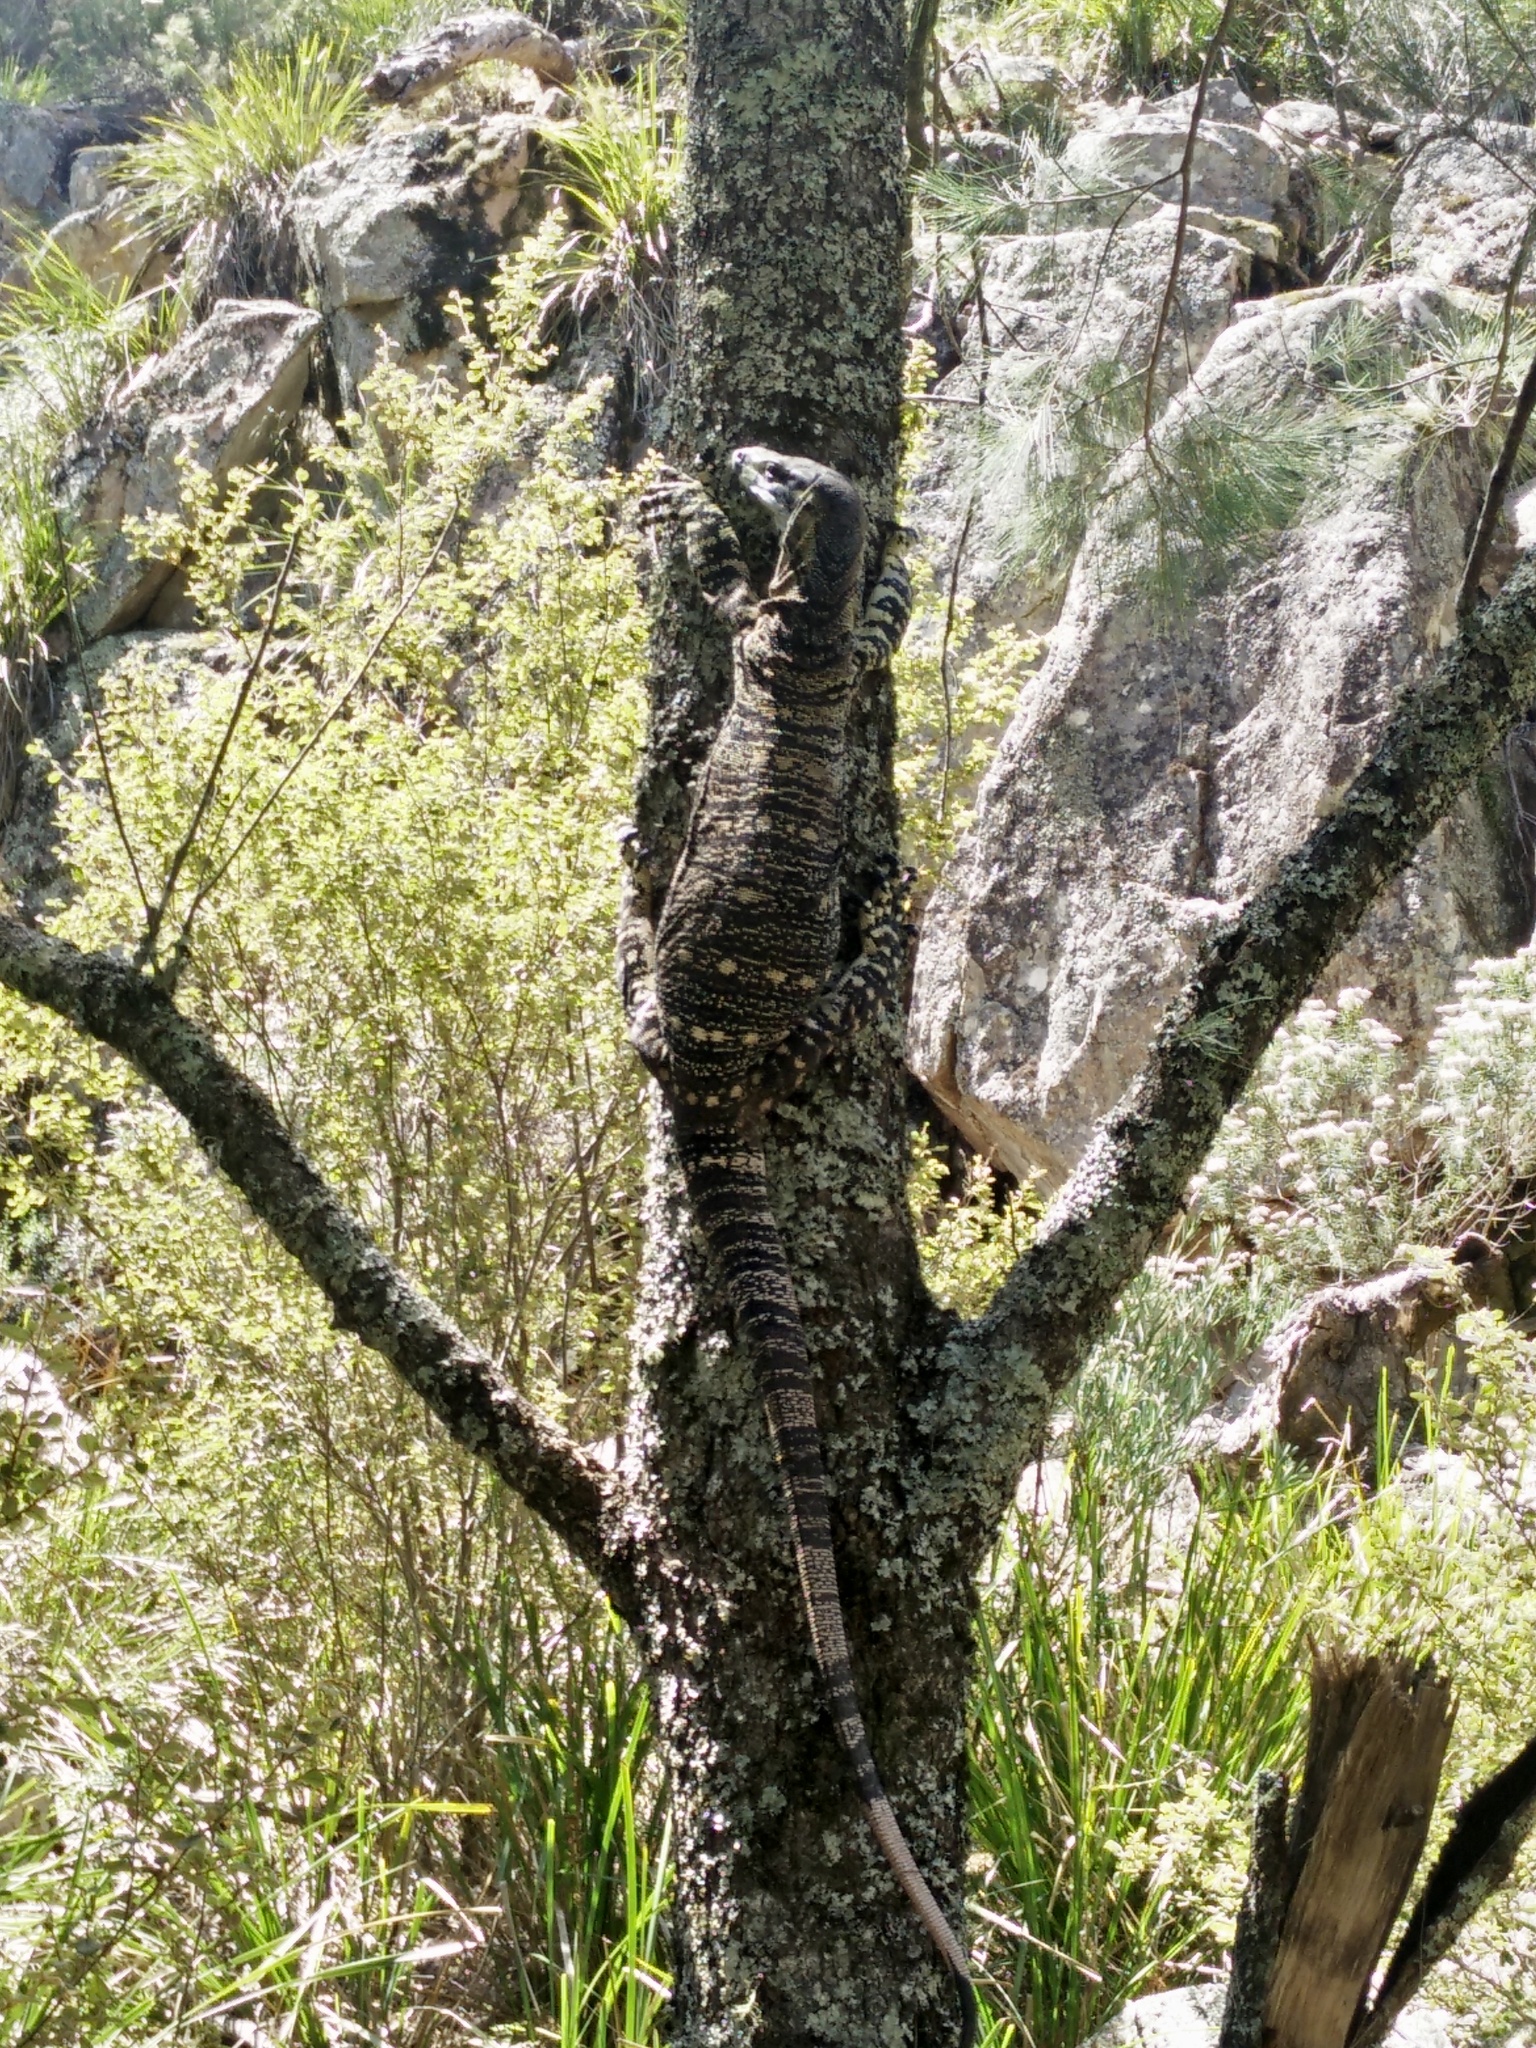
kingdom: Animalia
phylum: Chordata
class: Squamata
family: Varanidae
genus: Varanus
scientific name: Varanus varius
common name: Lace monitor
